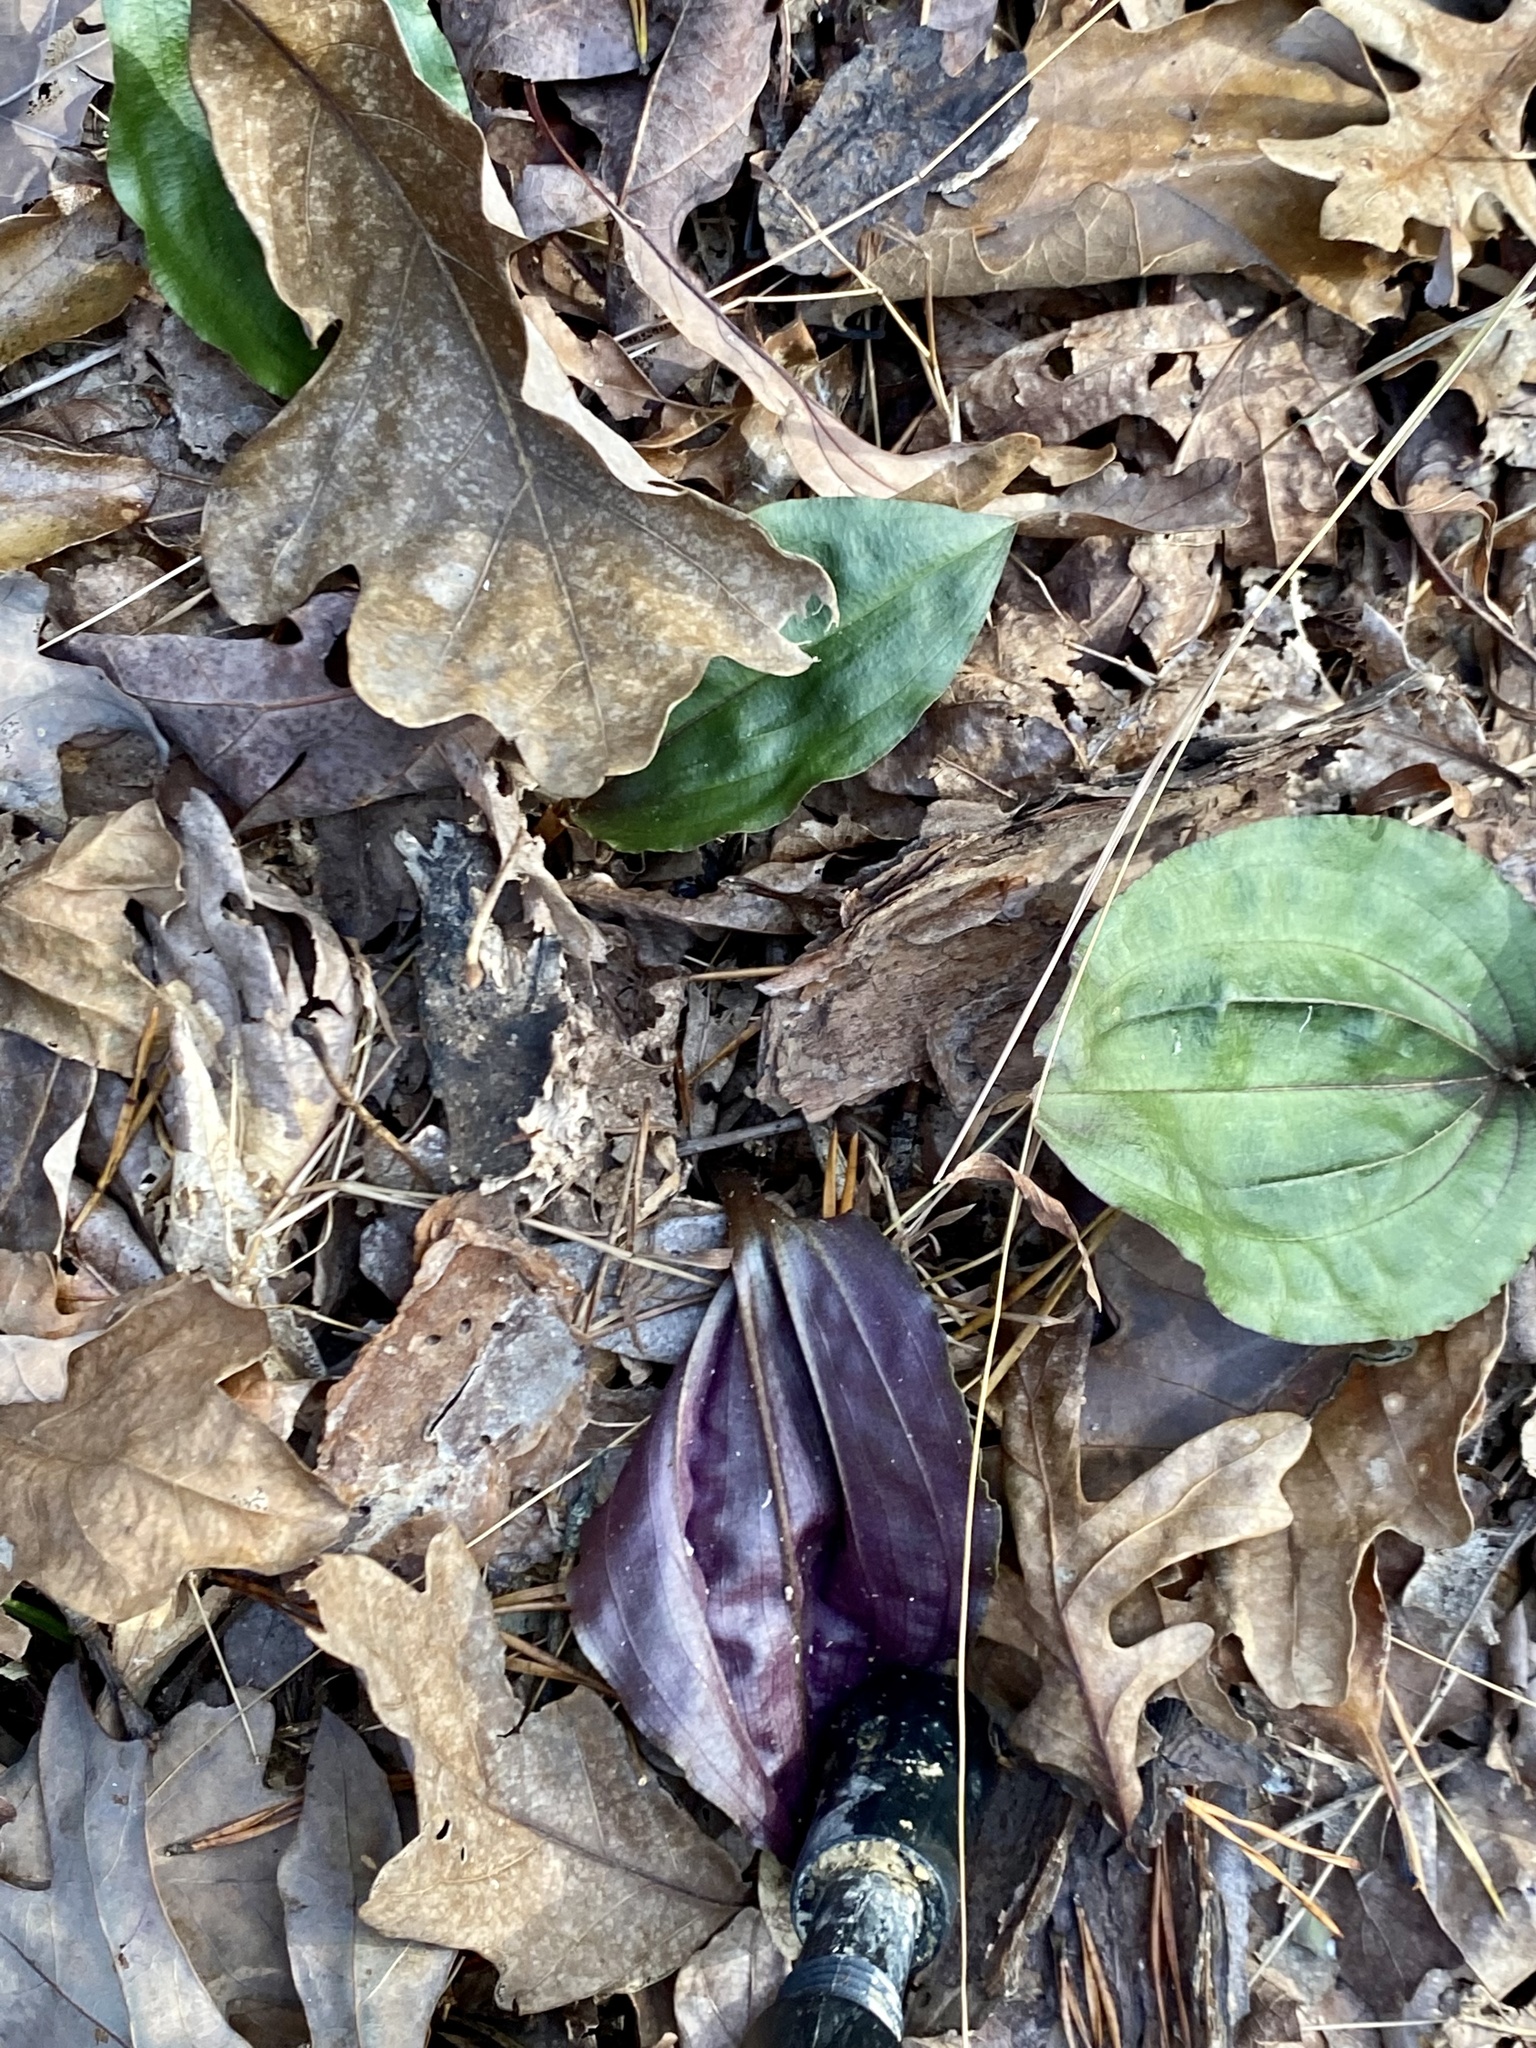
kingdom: Plantae
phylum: Tracheophyta
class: Liliopsida
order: Asparagales
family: Orchidaceae
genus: Tipularia
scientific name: Tipularia discolor
